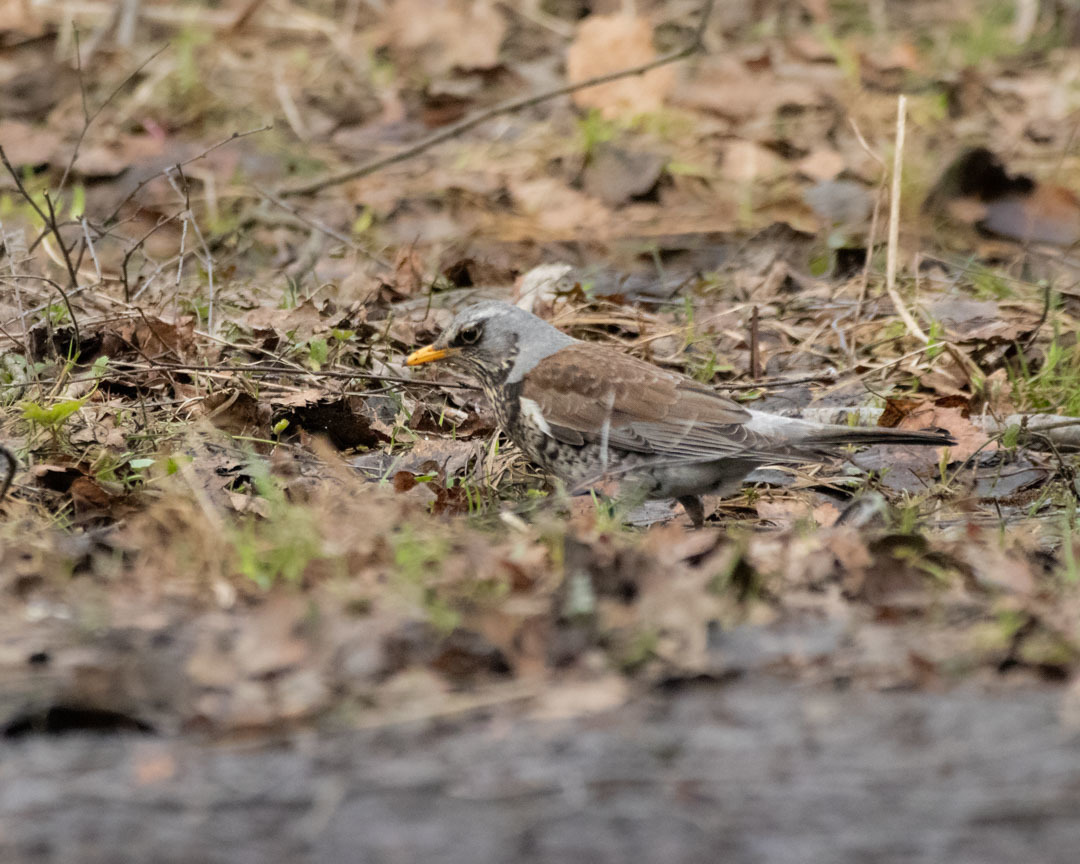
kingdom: Animalia
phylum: Chordata
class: Aves
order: Passeriformes
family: Turdidae
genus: Turdus
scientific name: Turdus pilaris
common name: Fieldfare
